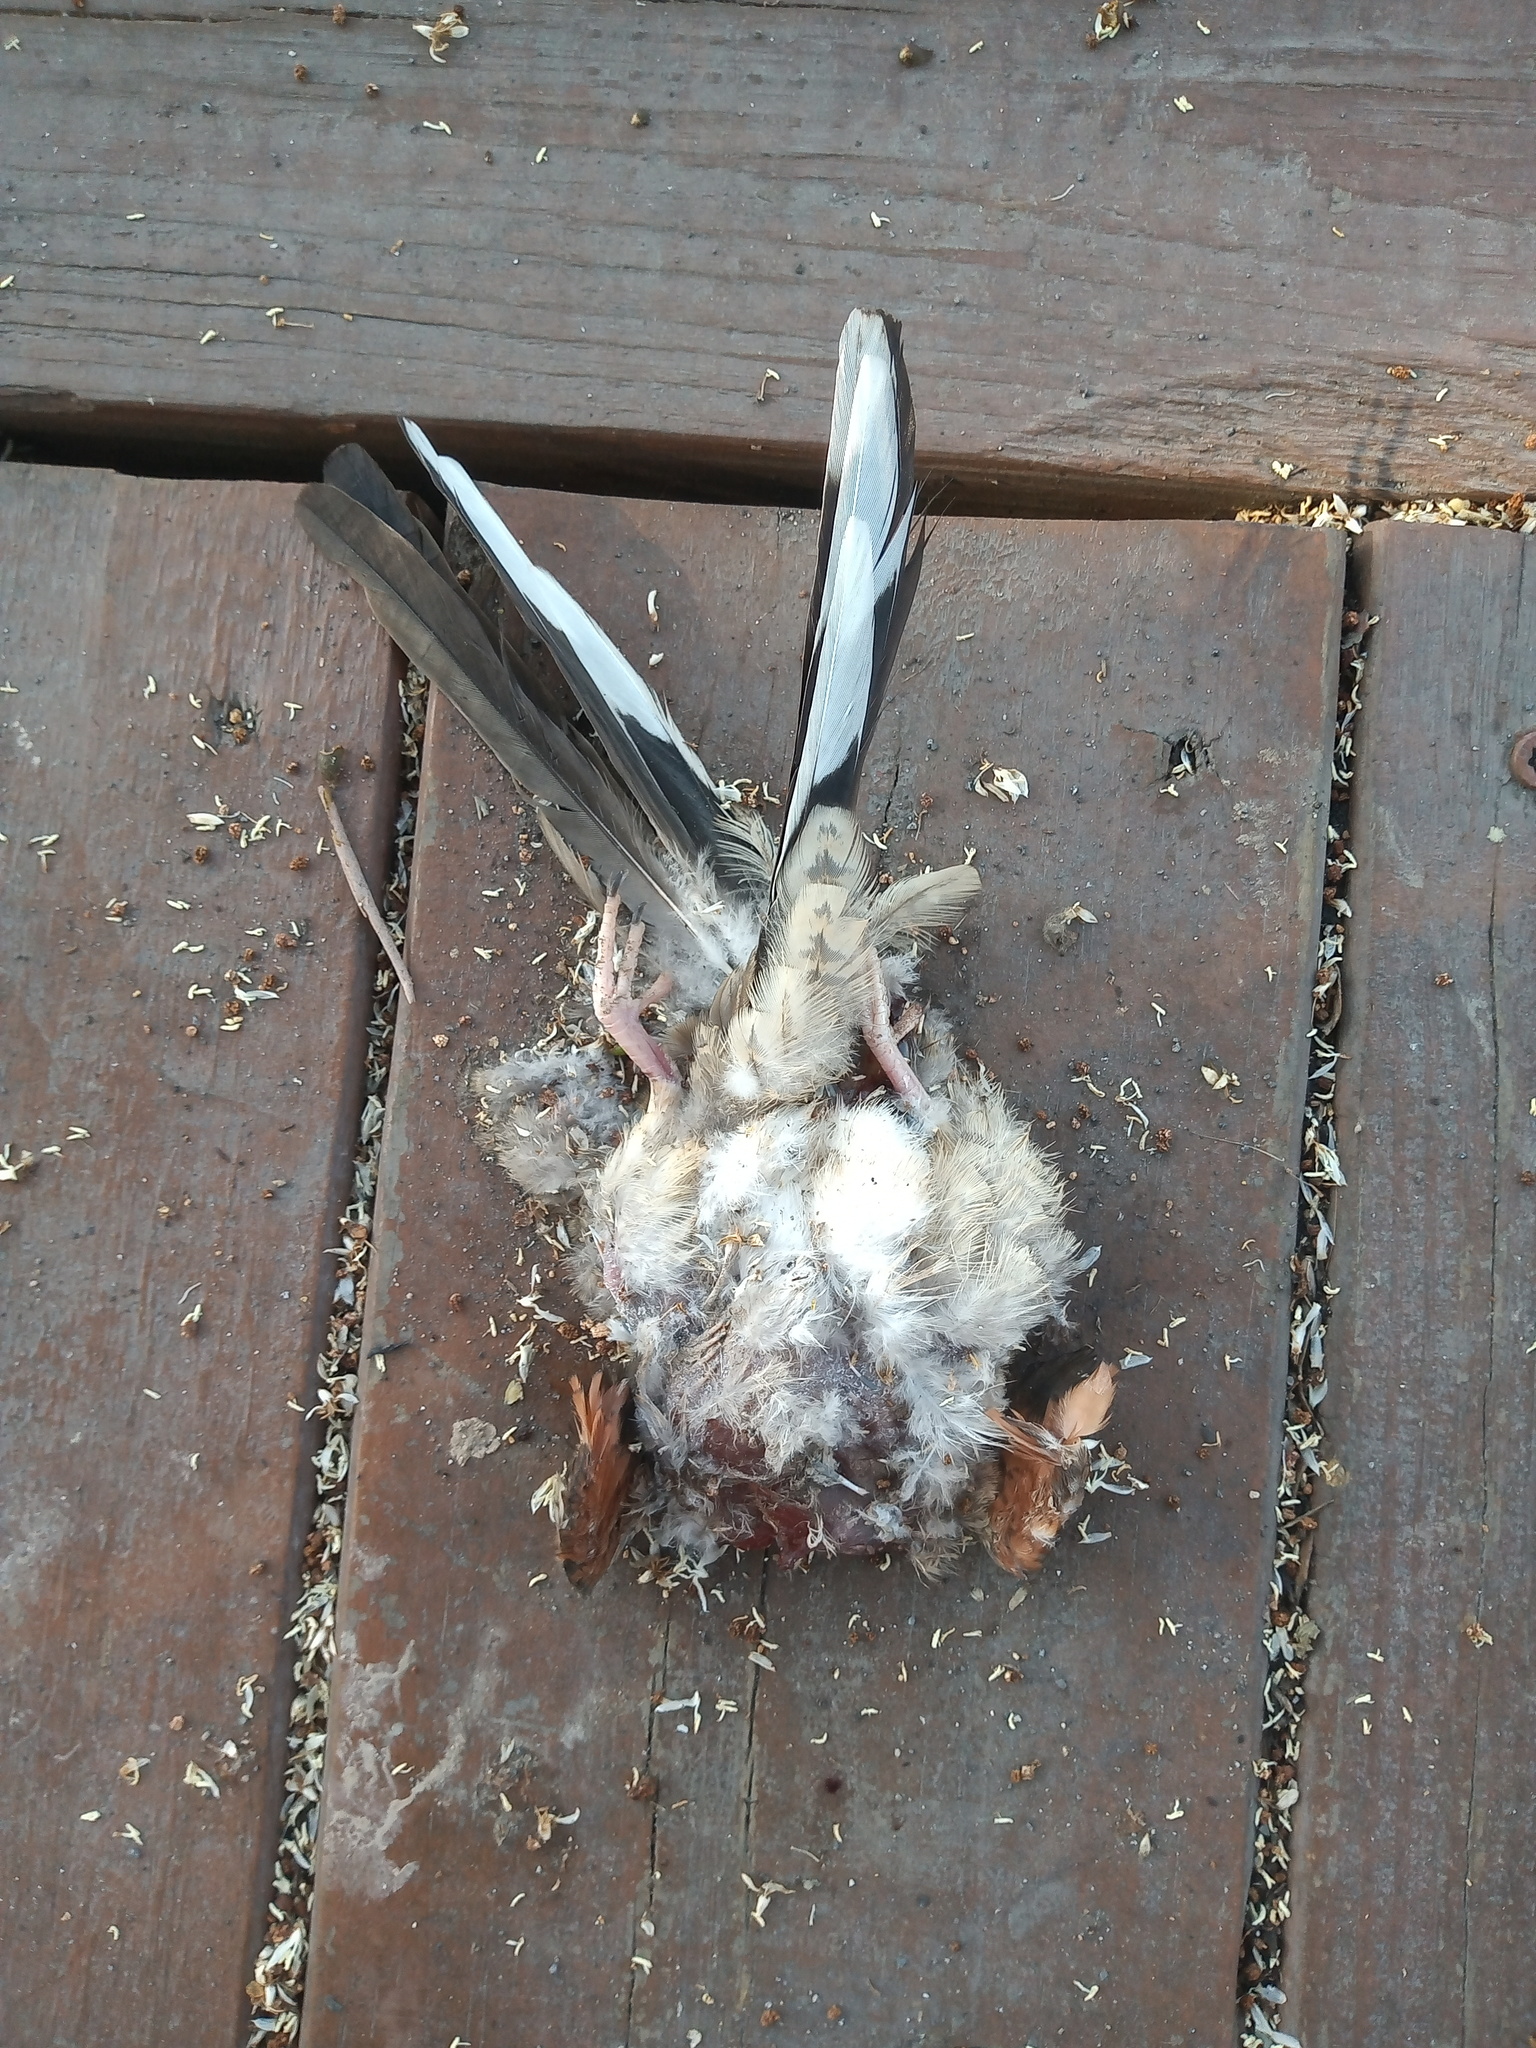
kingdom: Animalia
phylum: Chordata
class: Aves
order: Columbiformes
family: Columbidae
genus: Columbina
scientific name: Columbina inca
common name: Inca dove
